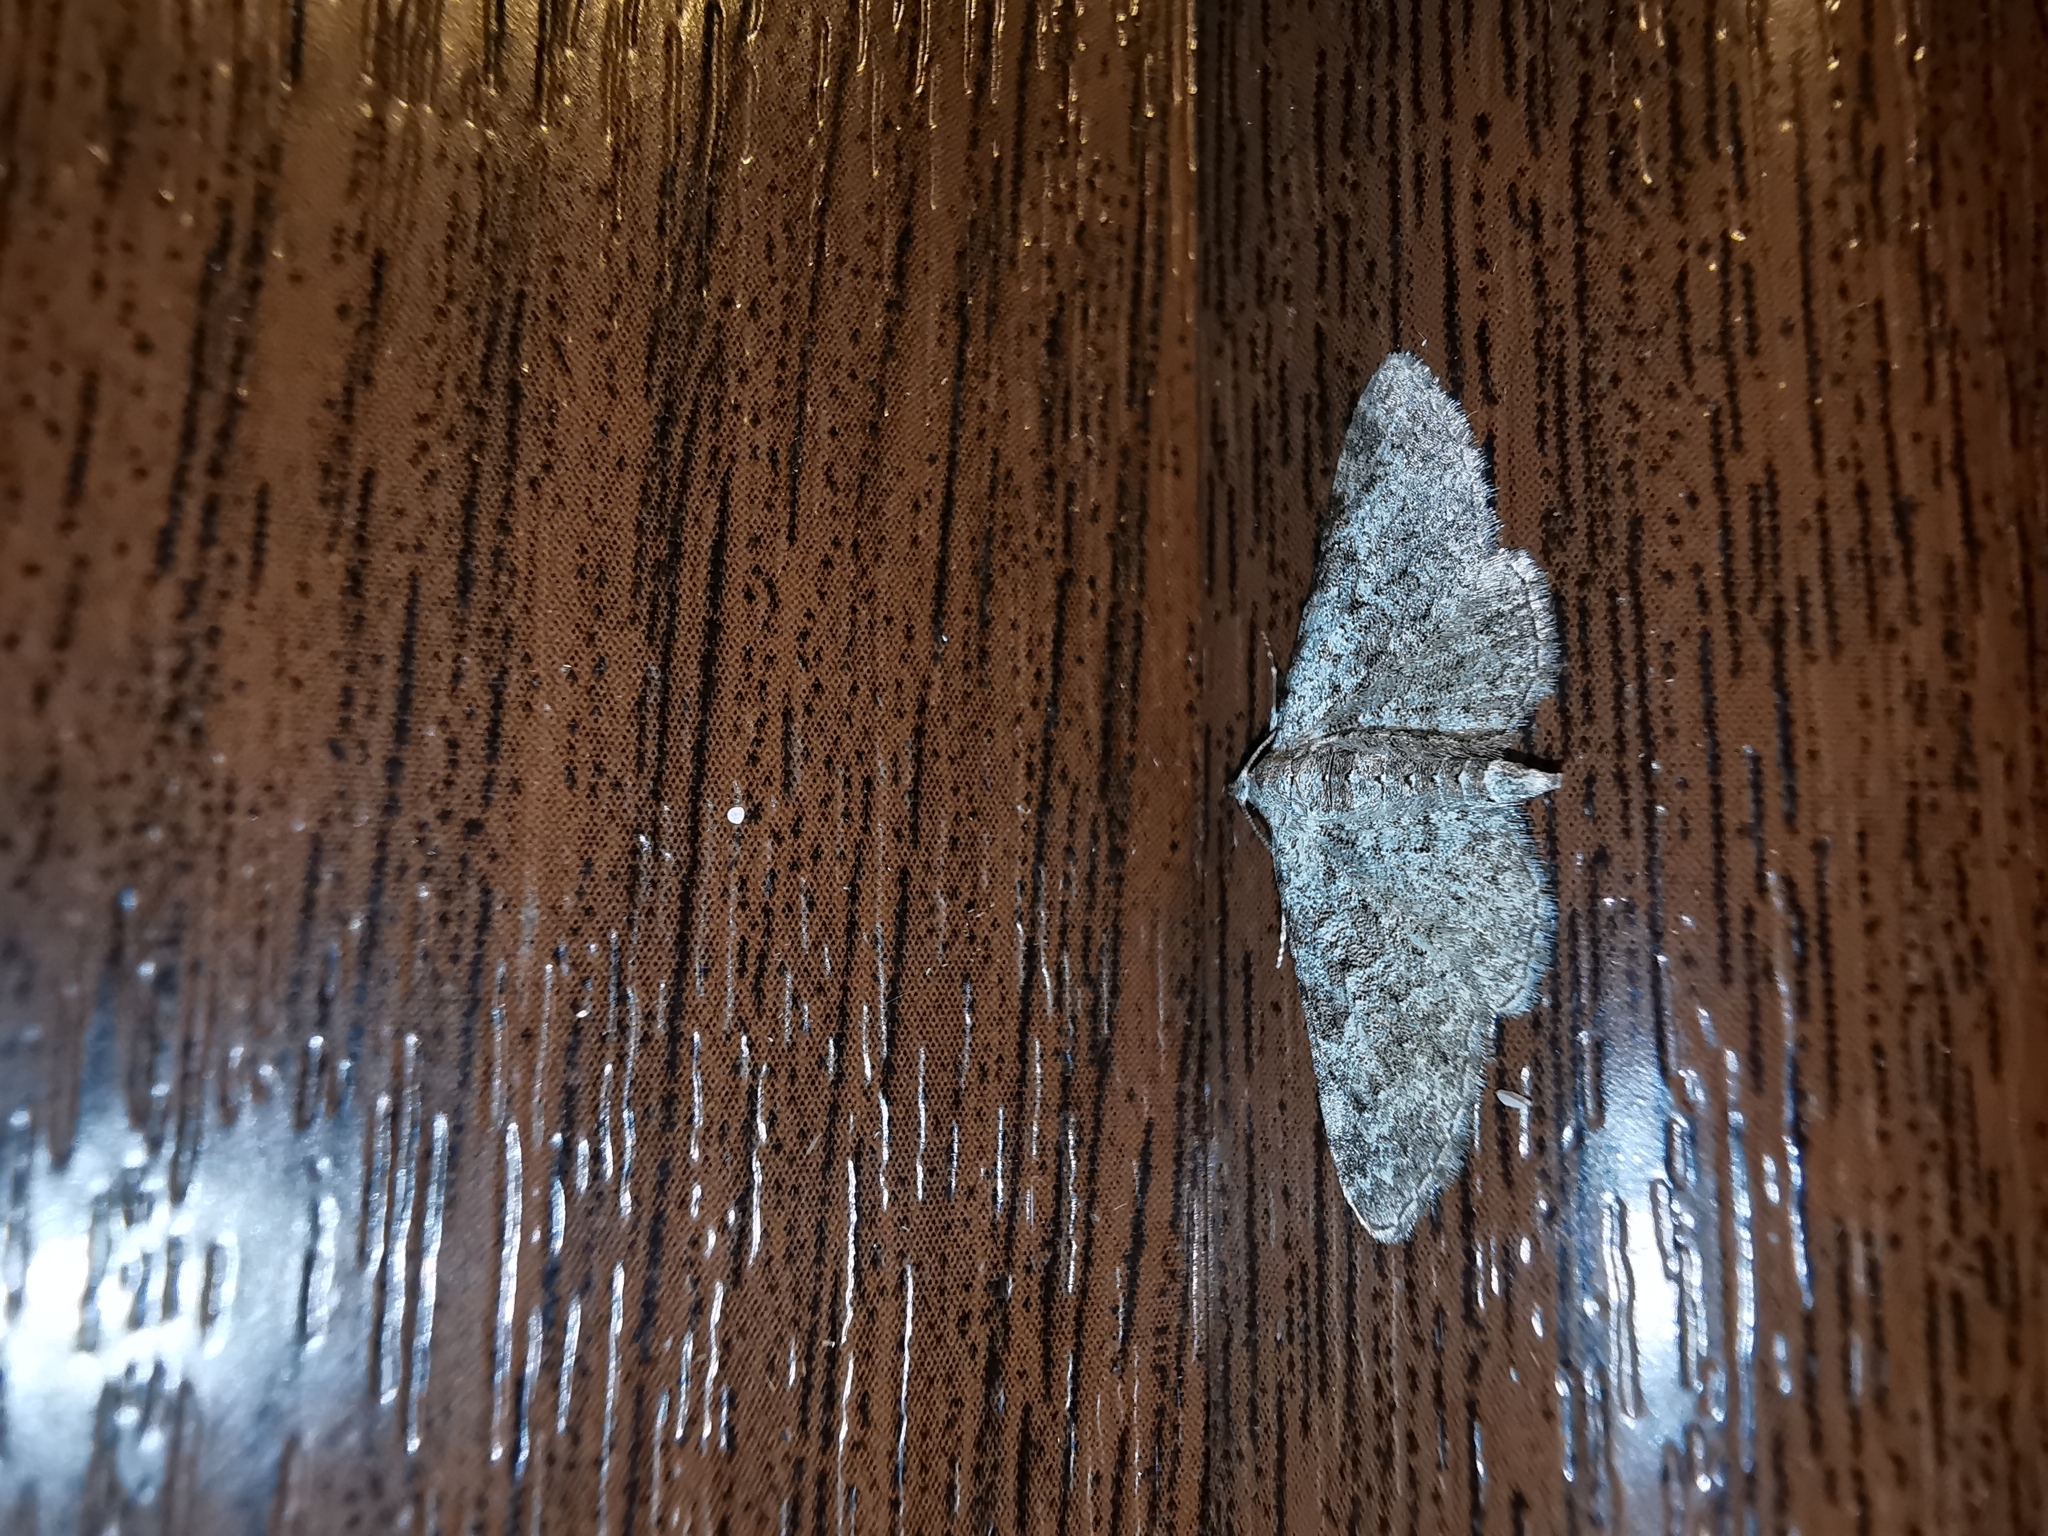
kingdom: Animalia
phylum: Arthropoda
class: Insecta
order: Lepidoptera
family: Geometridae
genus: Eupithecia
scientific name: Eupithecia semigraphata
